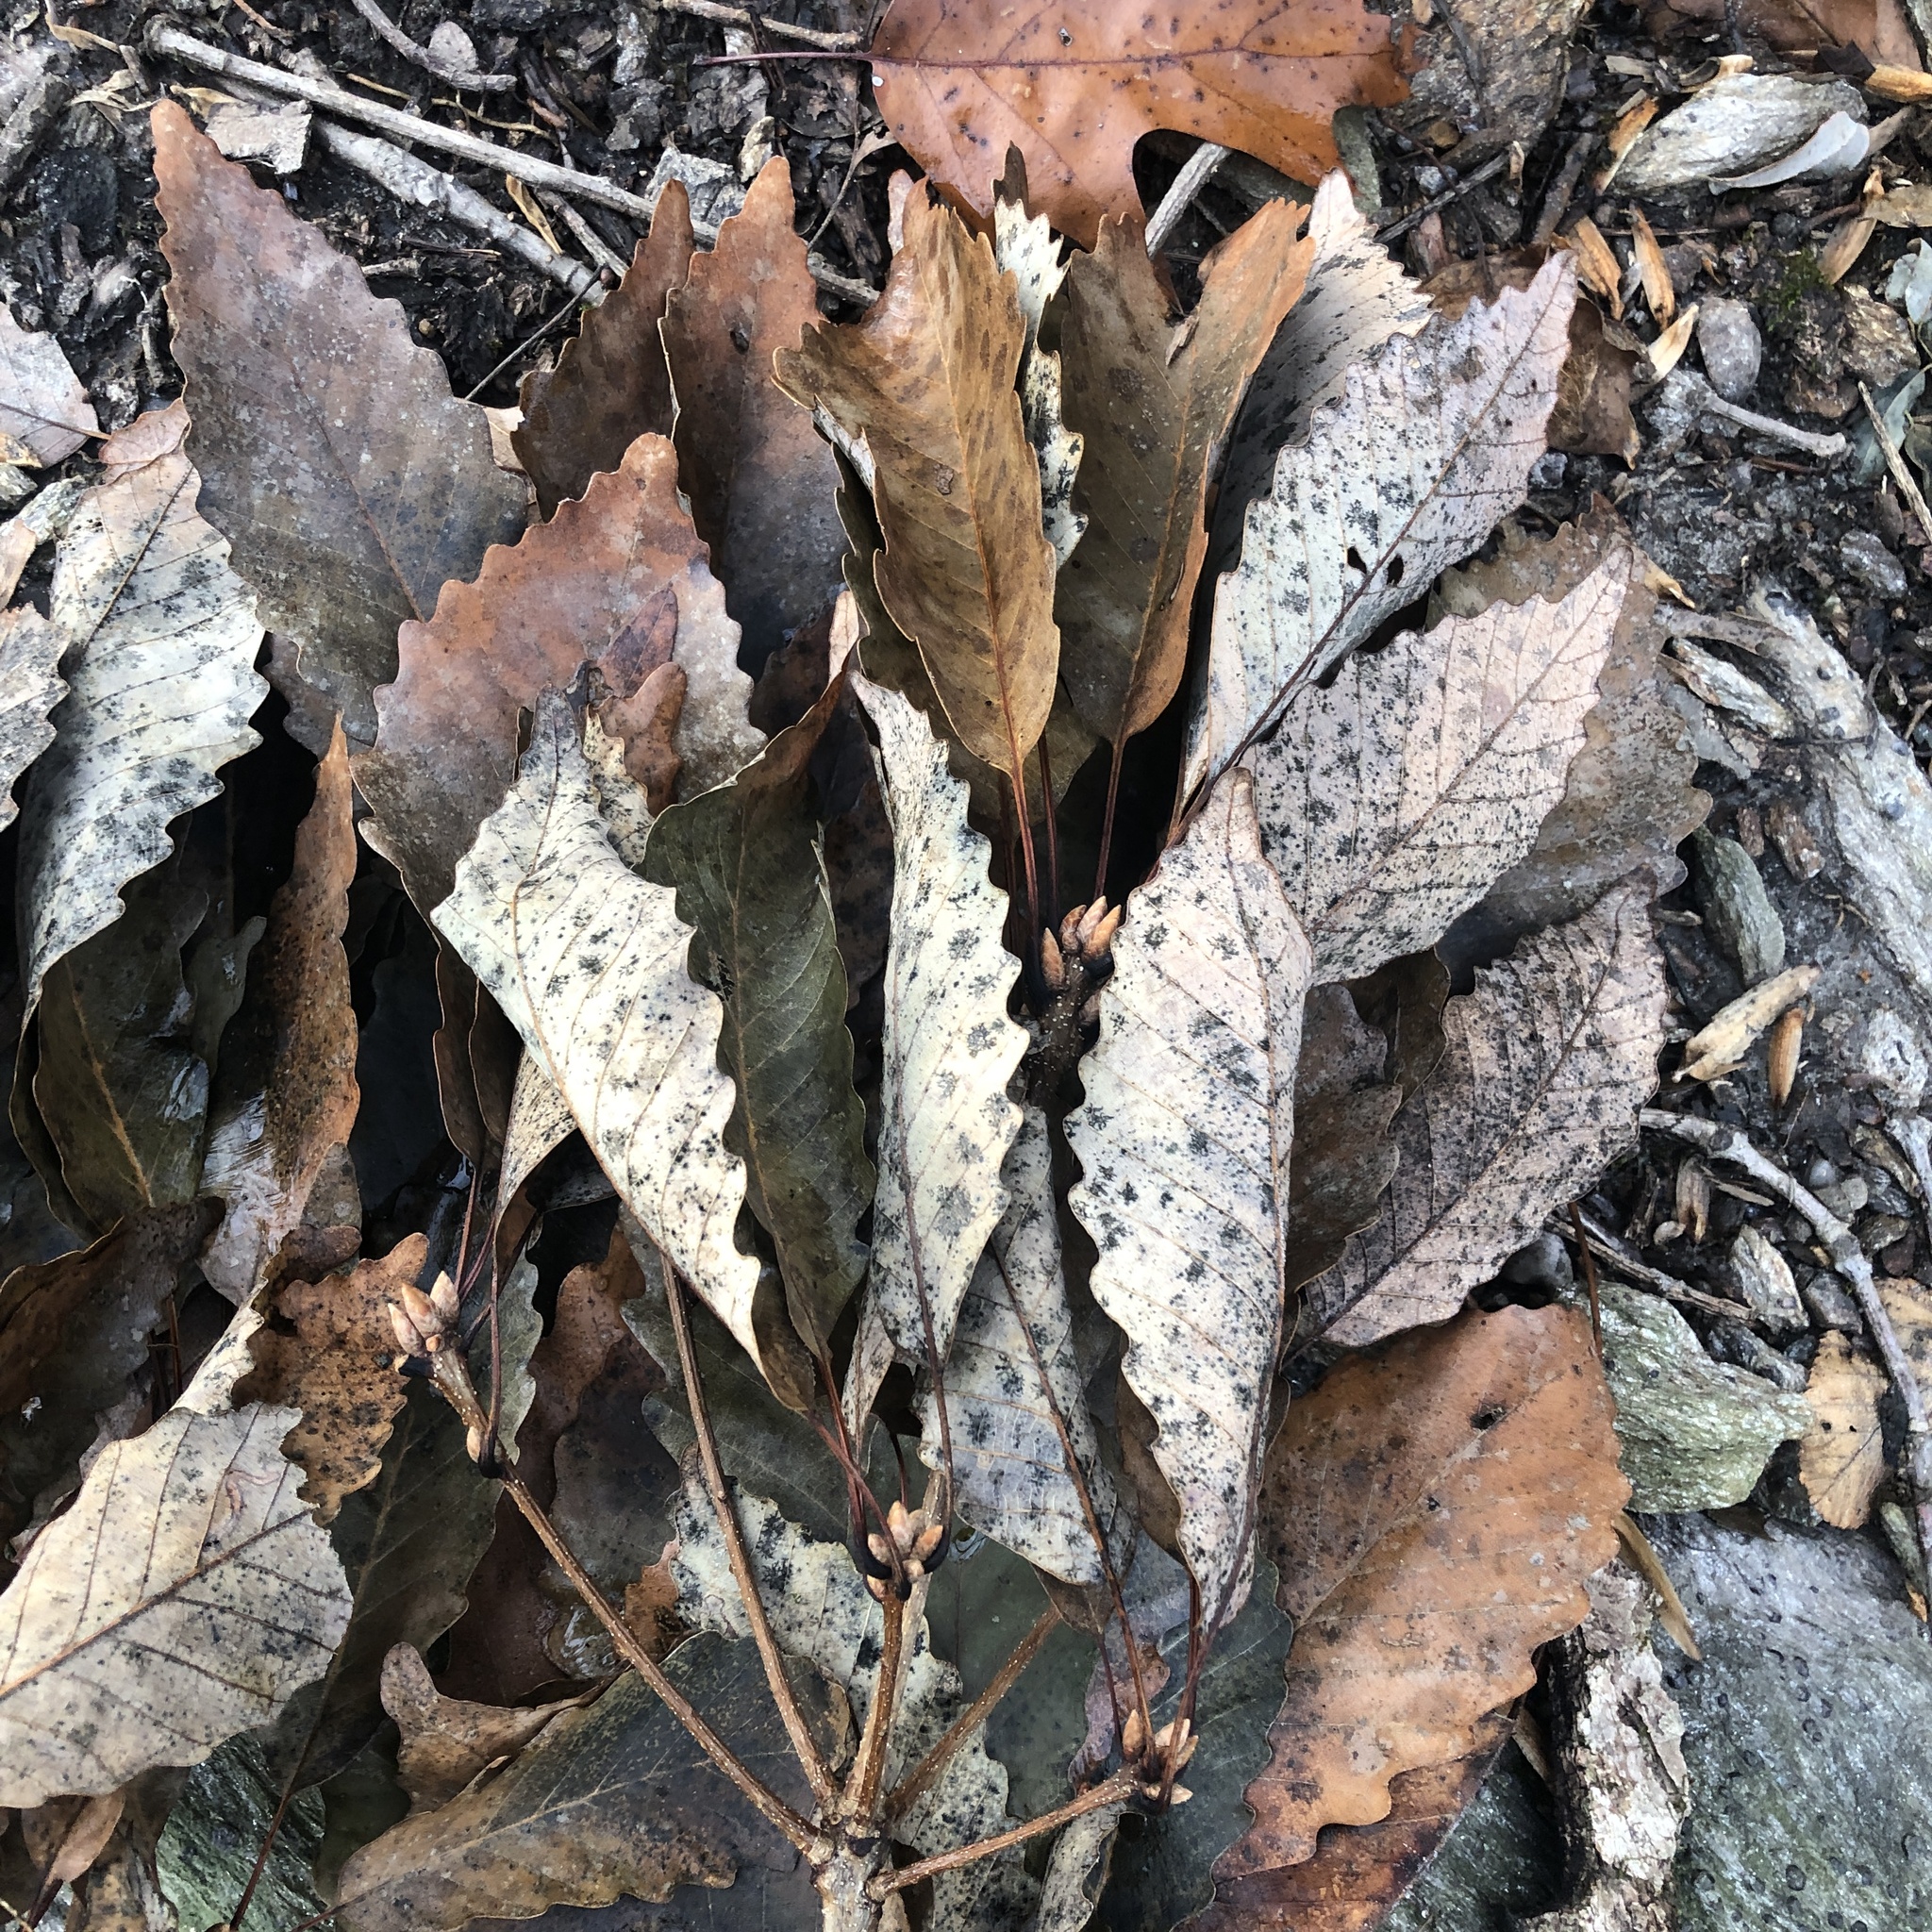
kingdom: Plantae
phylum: Tracheophyta
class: Magnoliopsida
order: Fagales
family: Fagaceae
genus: Quercus
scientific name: Quercus montana
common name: Chestnut oak
